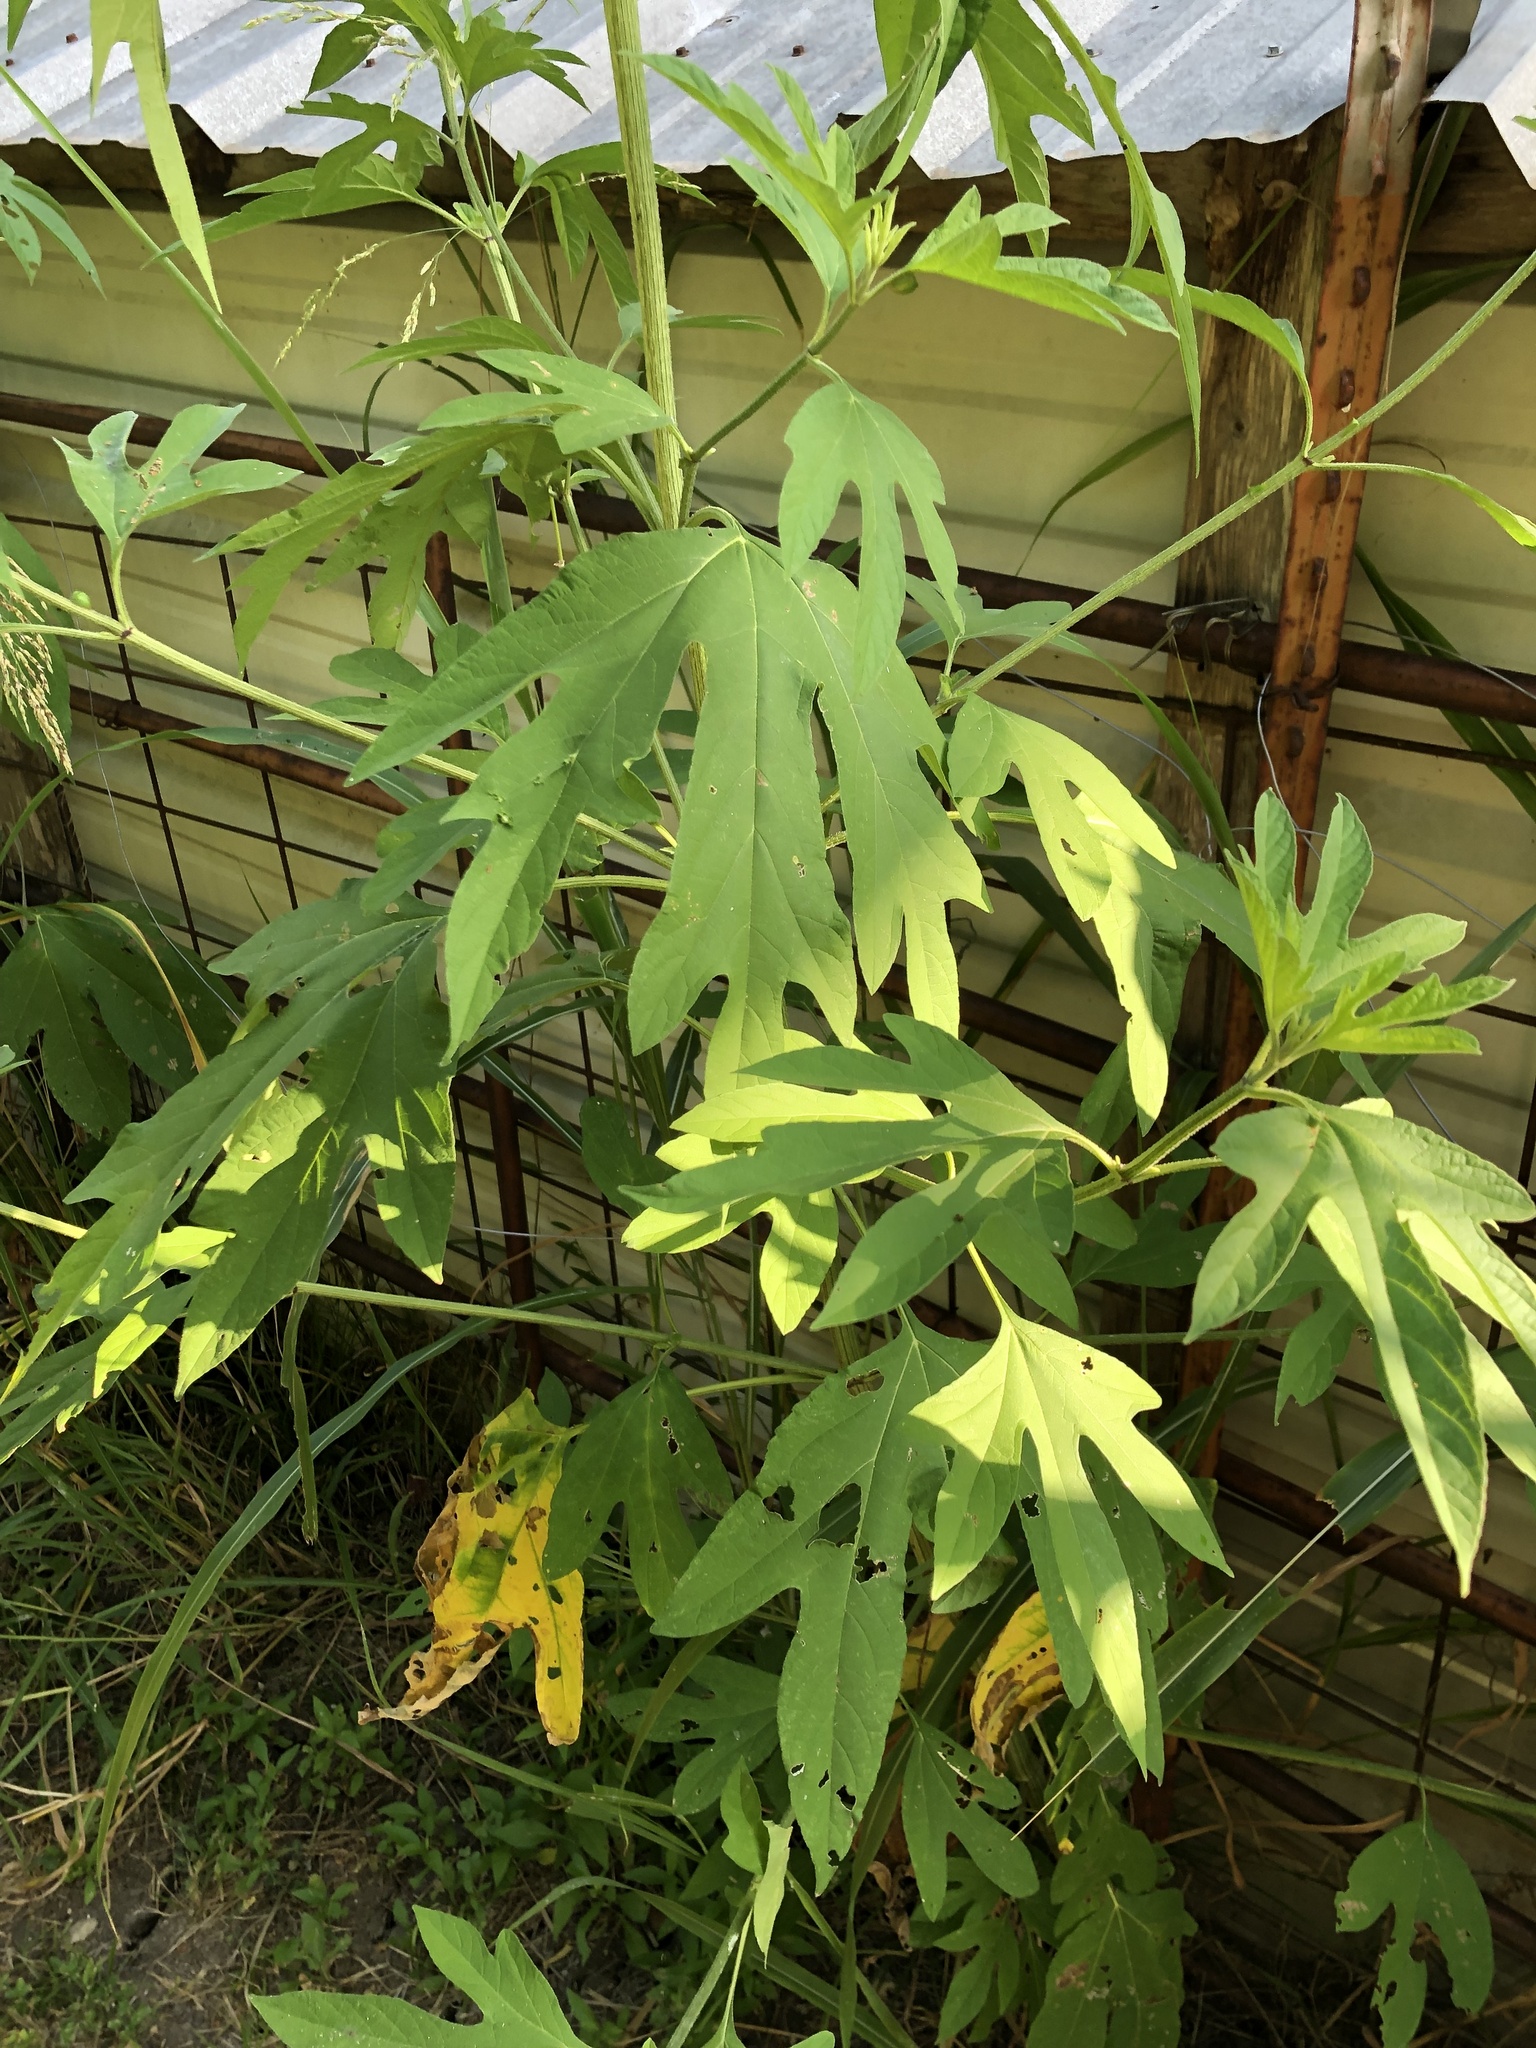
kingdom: Plantae
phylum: Tracheophyta
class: Magnoliopsida
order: Asterales
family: Asteraceae
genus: Ambrosia
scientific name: Ambrosia trifida
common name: Giant ragweed
